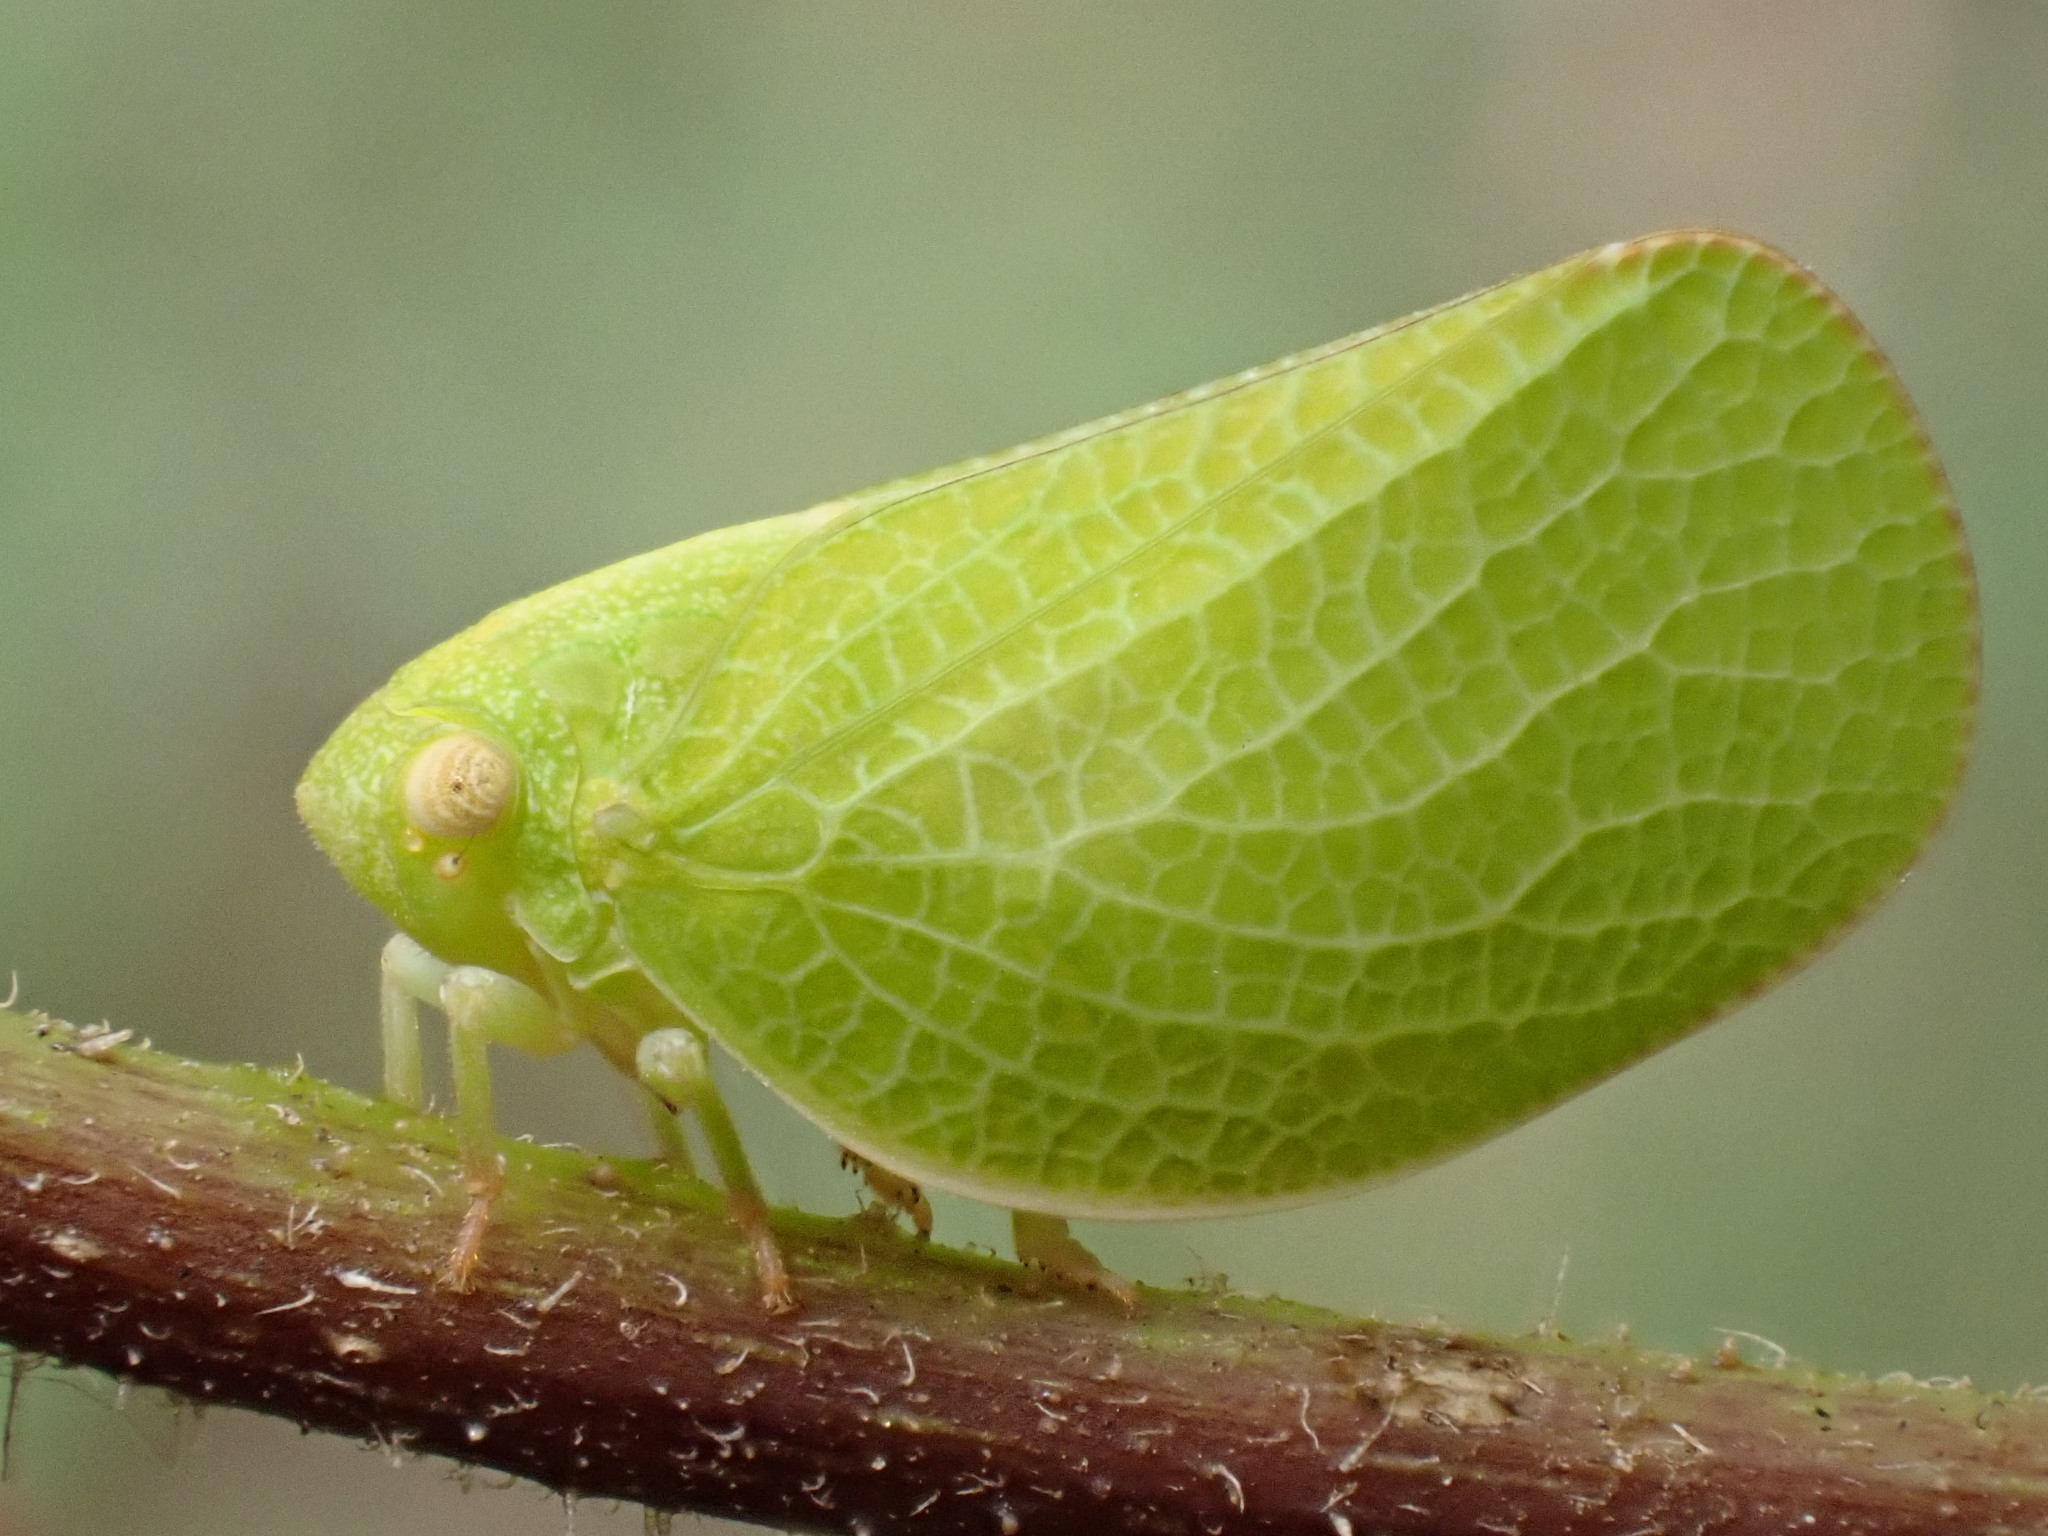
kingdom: Animalia
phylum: Arthropoda
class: Insecta
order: Hemiptera
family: Acanaloniidae
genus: Acanalonia
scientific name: Acanalonia conica
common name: Green cone-headed planthopper
